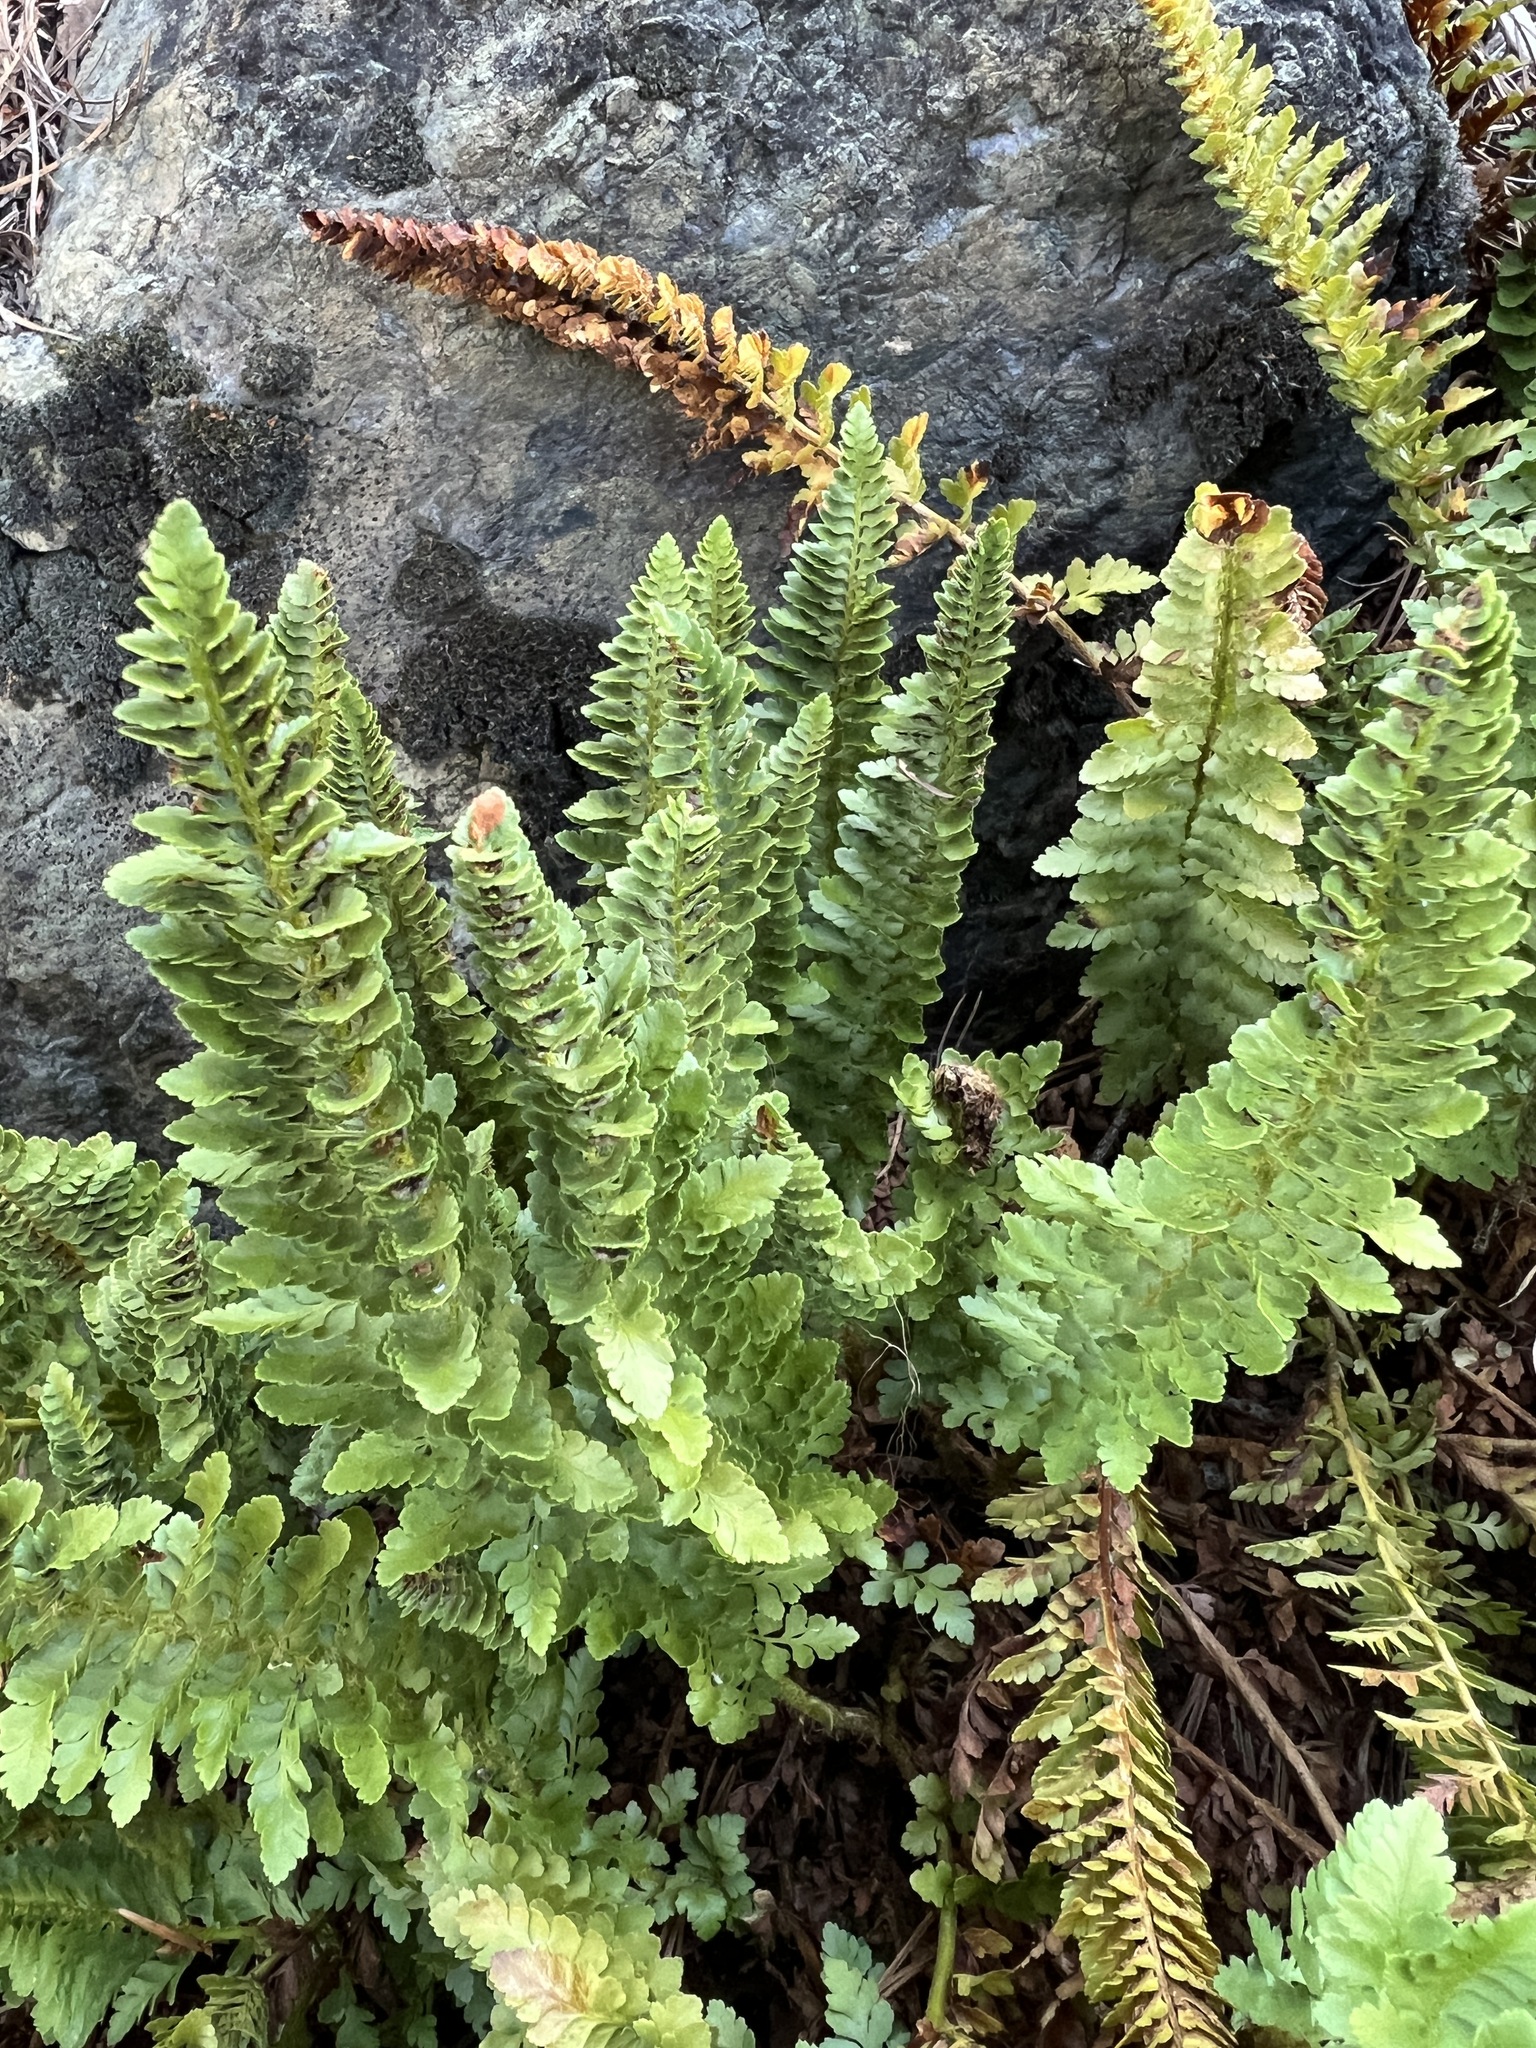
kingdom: Plantae
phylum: Tracheophyta
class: Polypodiopsida
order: Polypodiales
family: Dryopteridaceae
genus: Polystichum
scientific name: Polystichum lemmonii
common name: Lemmon's holly fern
